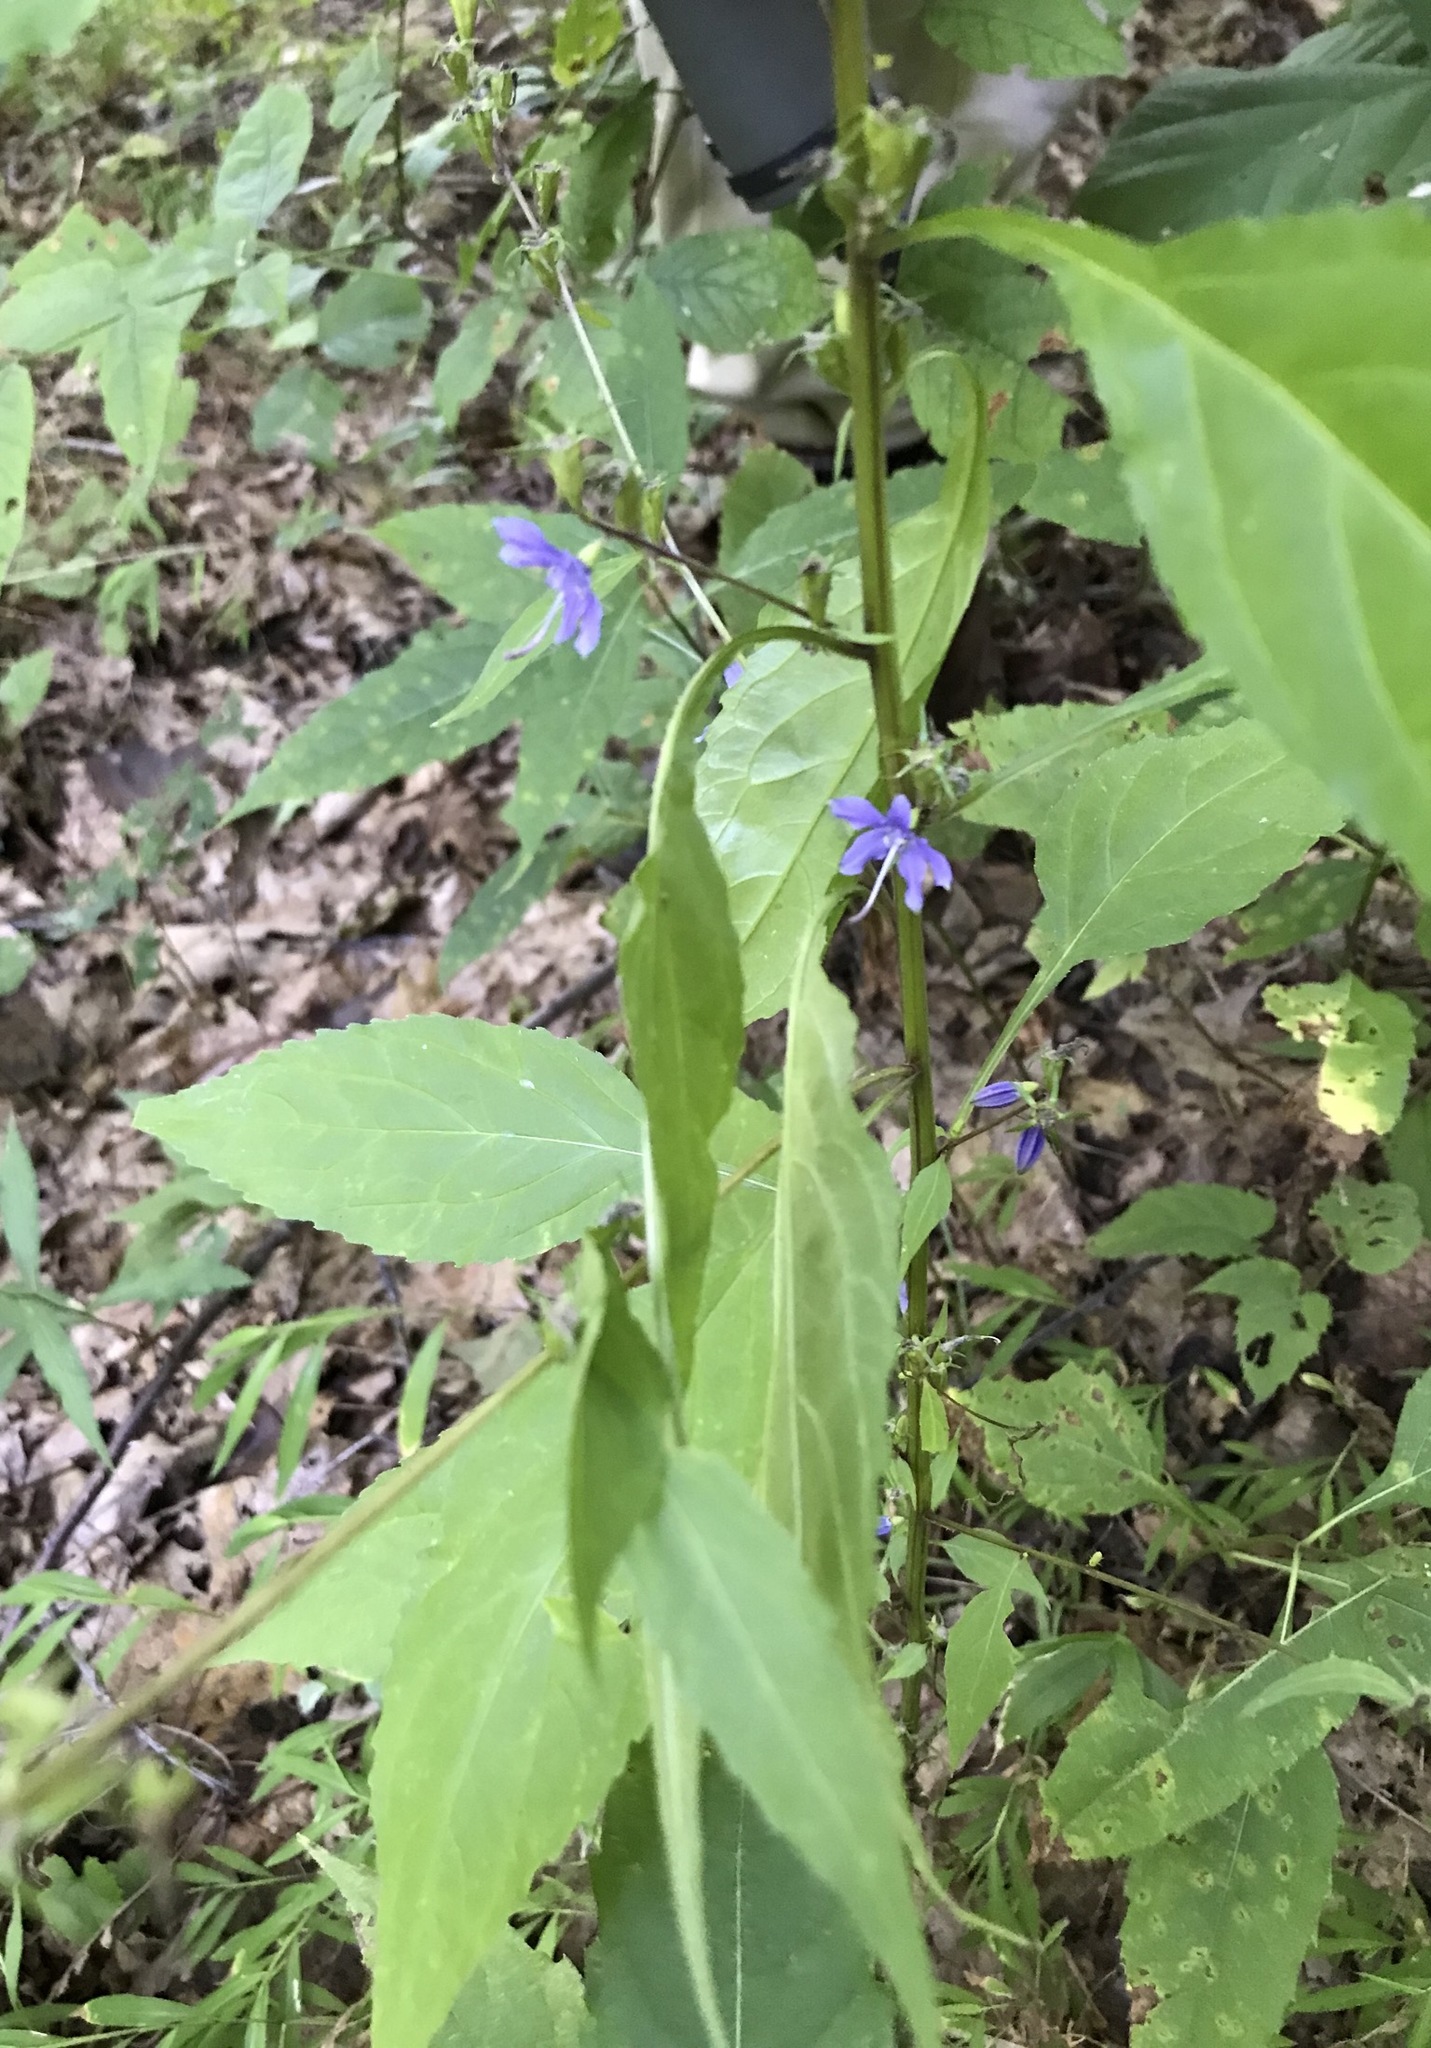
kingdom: Plantae
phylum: Tracheophyta
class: Magnoliopsida
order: Asterales
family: Campanulaceae
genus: Campanulastrum
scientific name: Campanulastrum americanum
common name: American bellflower
